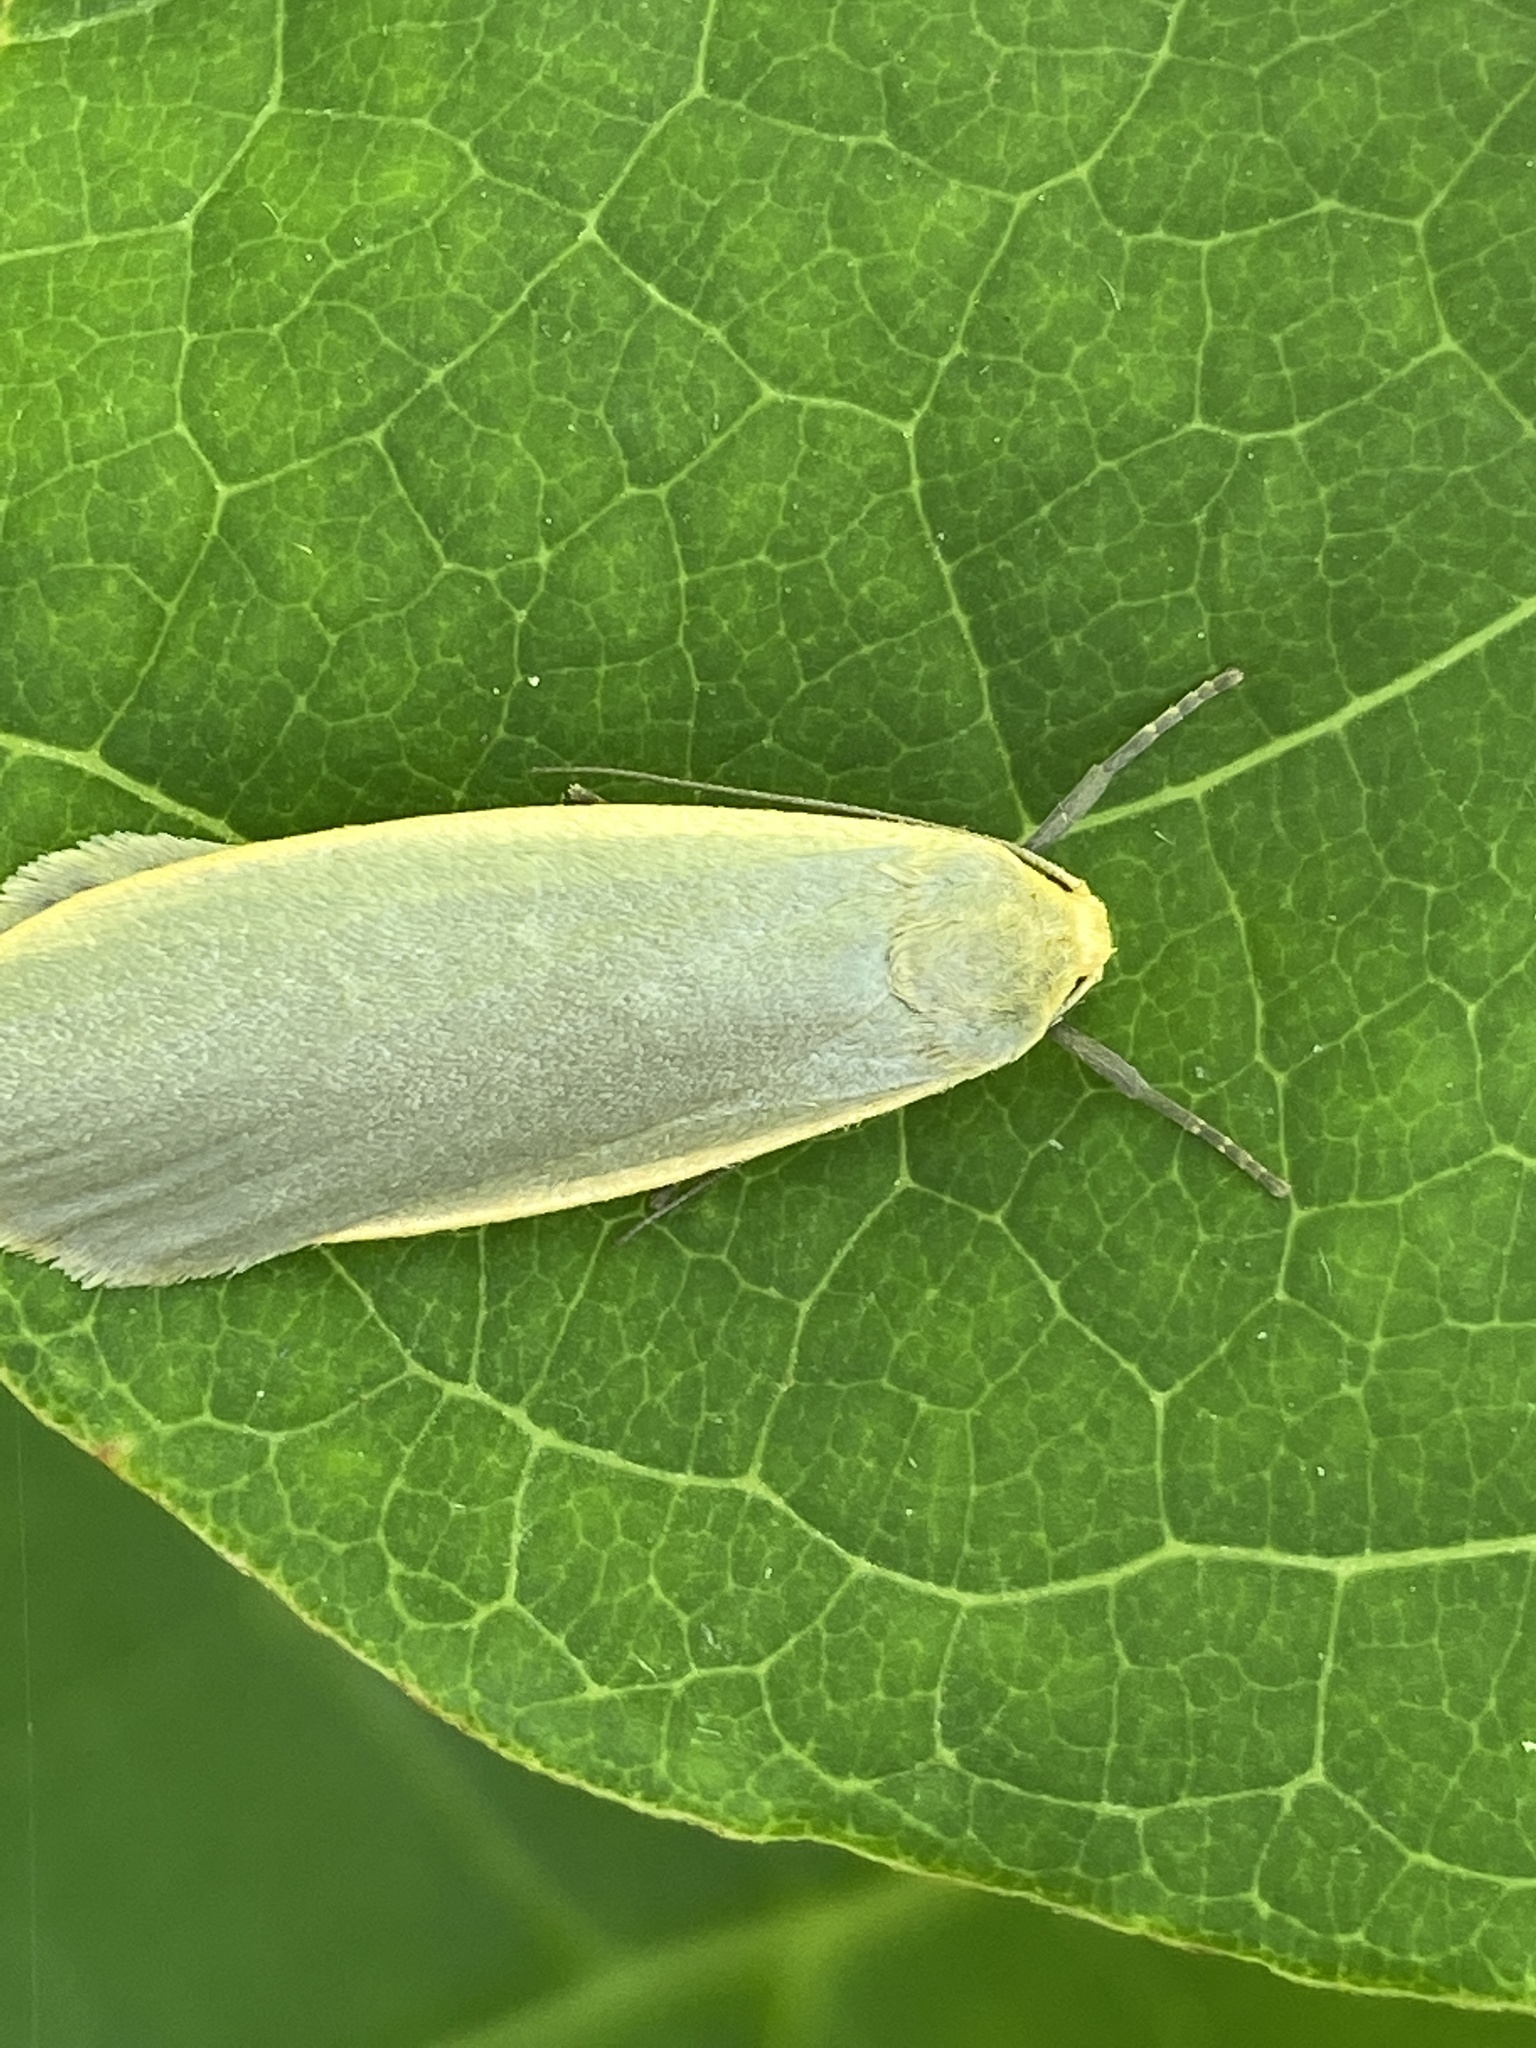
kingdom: Animalia
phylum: Arthropoda
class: Insecta
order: Lepidoptera
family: Erebidae
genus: Collita
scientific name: Collita griseola
